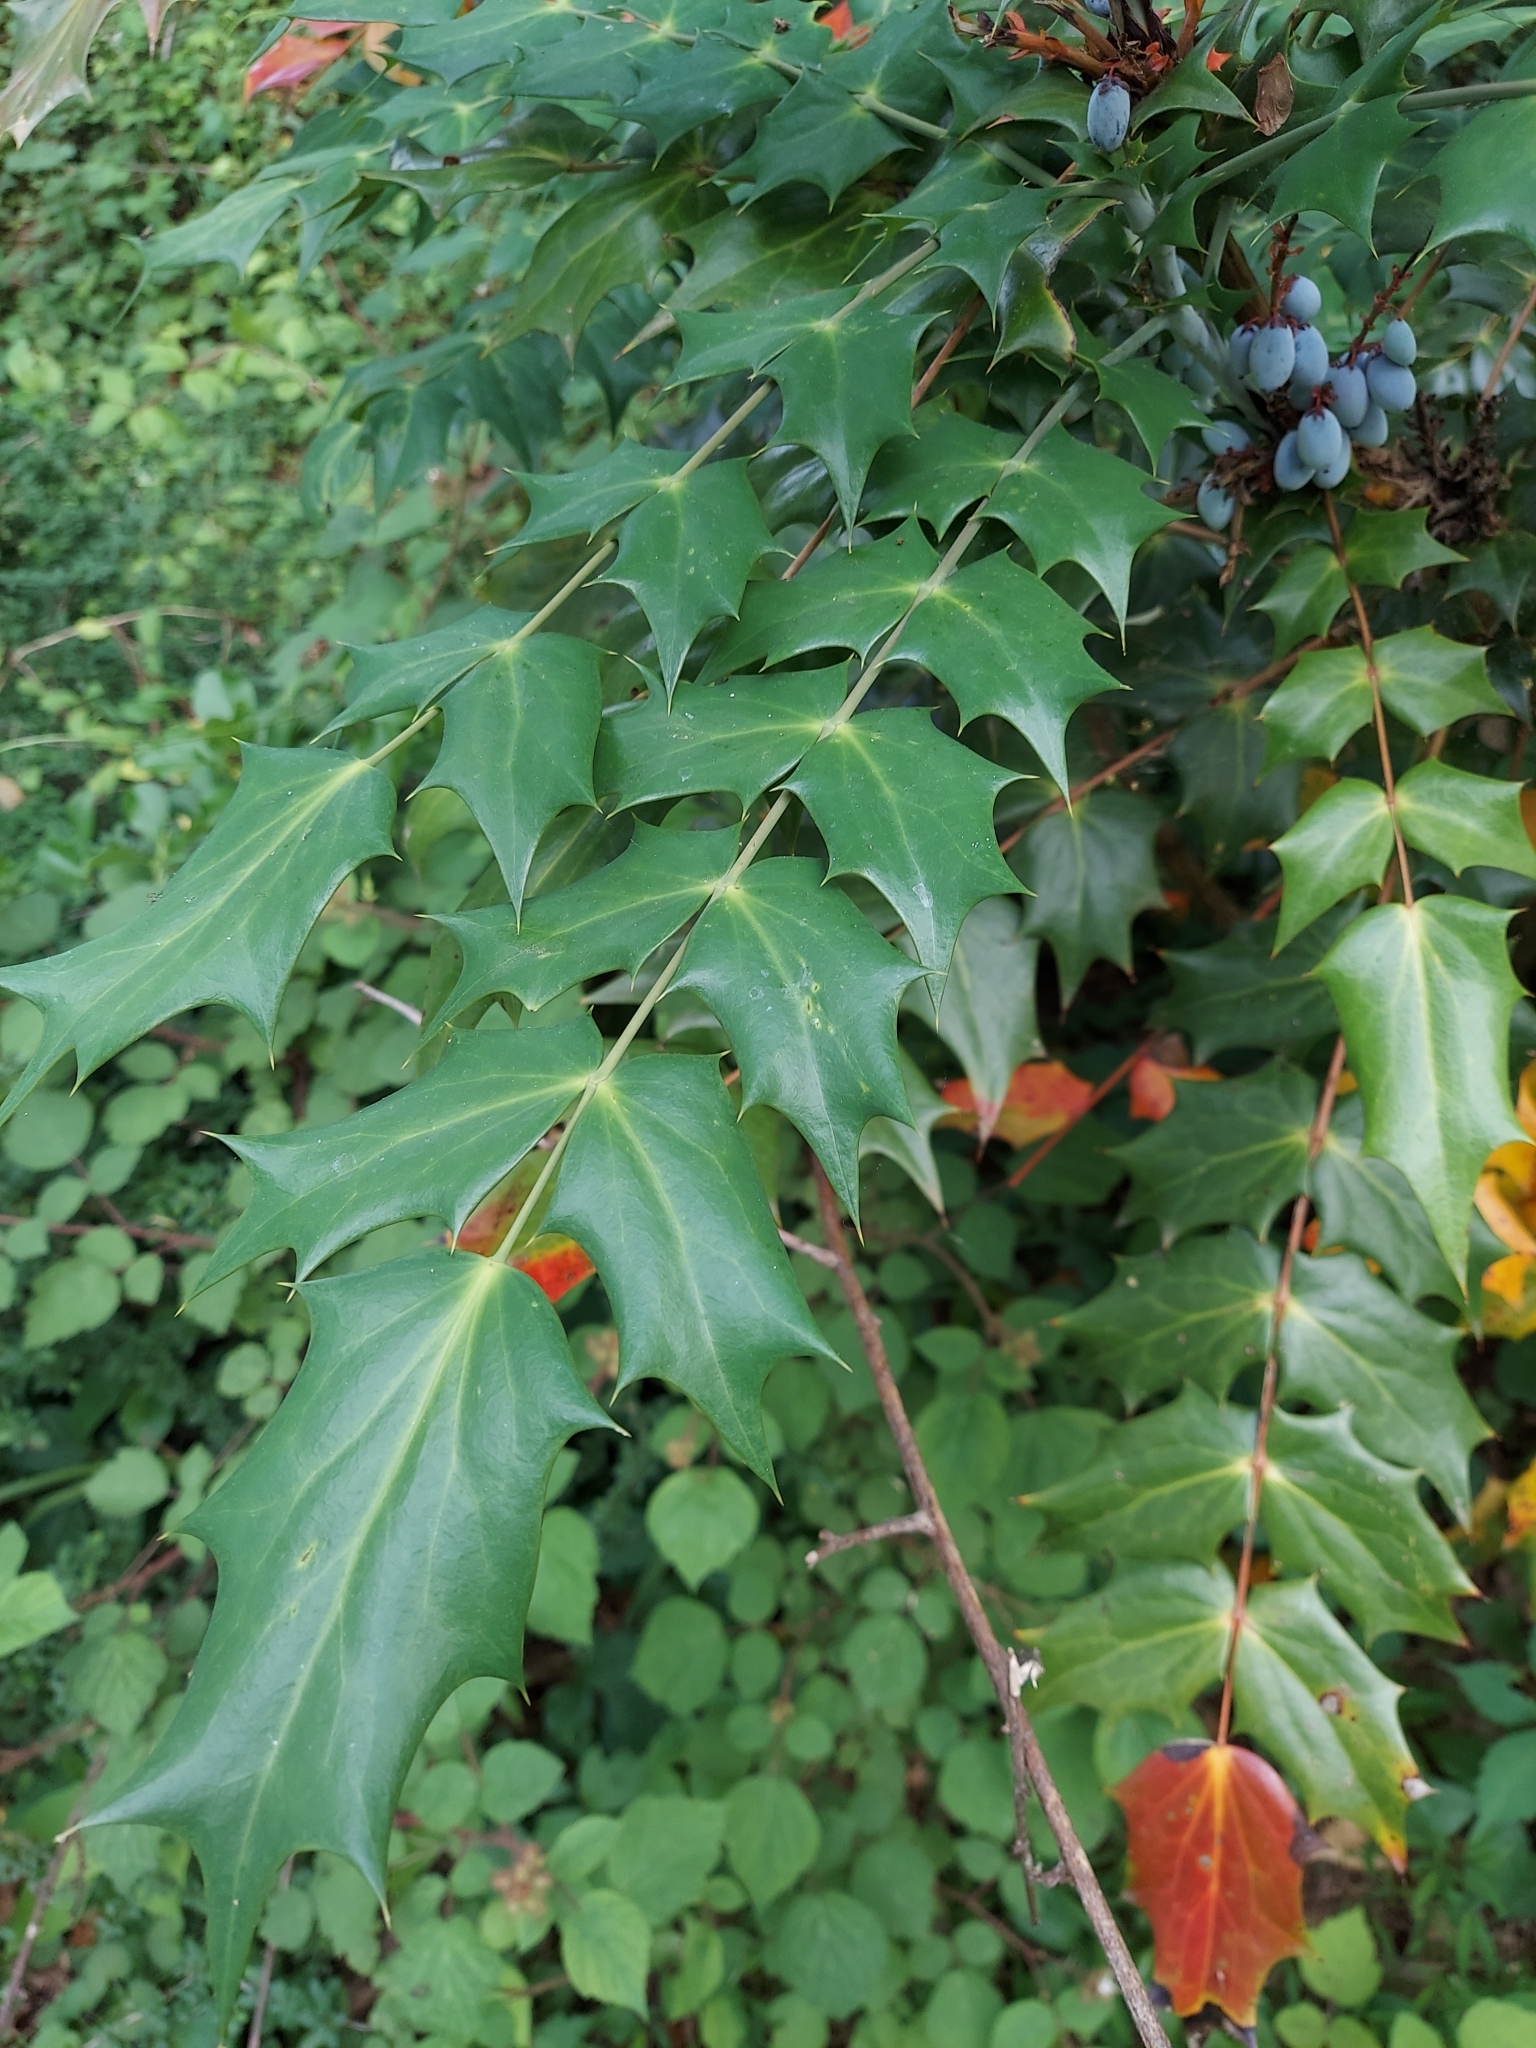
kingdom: Plantae
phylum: Tracheophyta
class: Magnoliopsida
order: Ranunculales
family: Berberidaceae
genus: Mahonia
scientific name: Mahonia bealei
